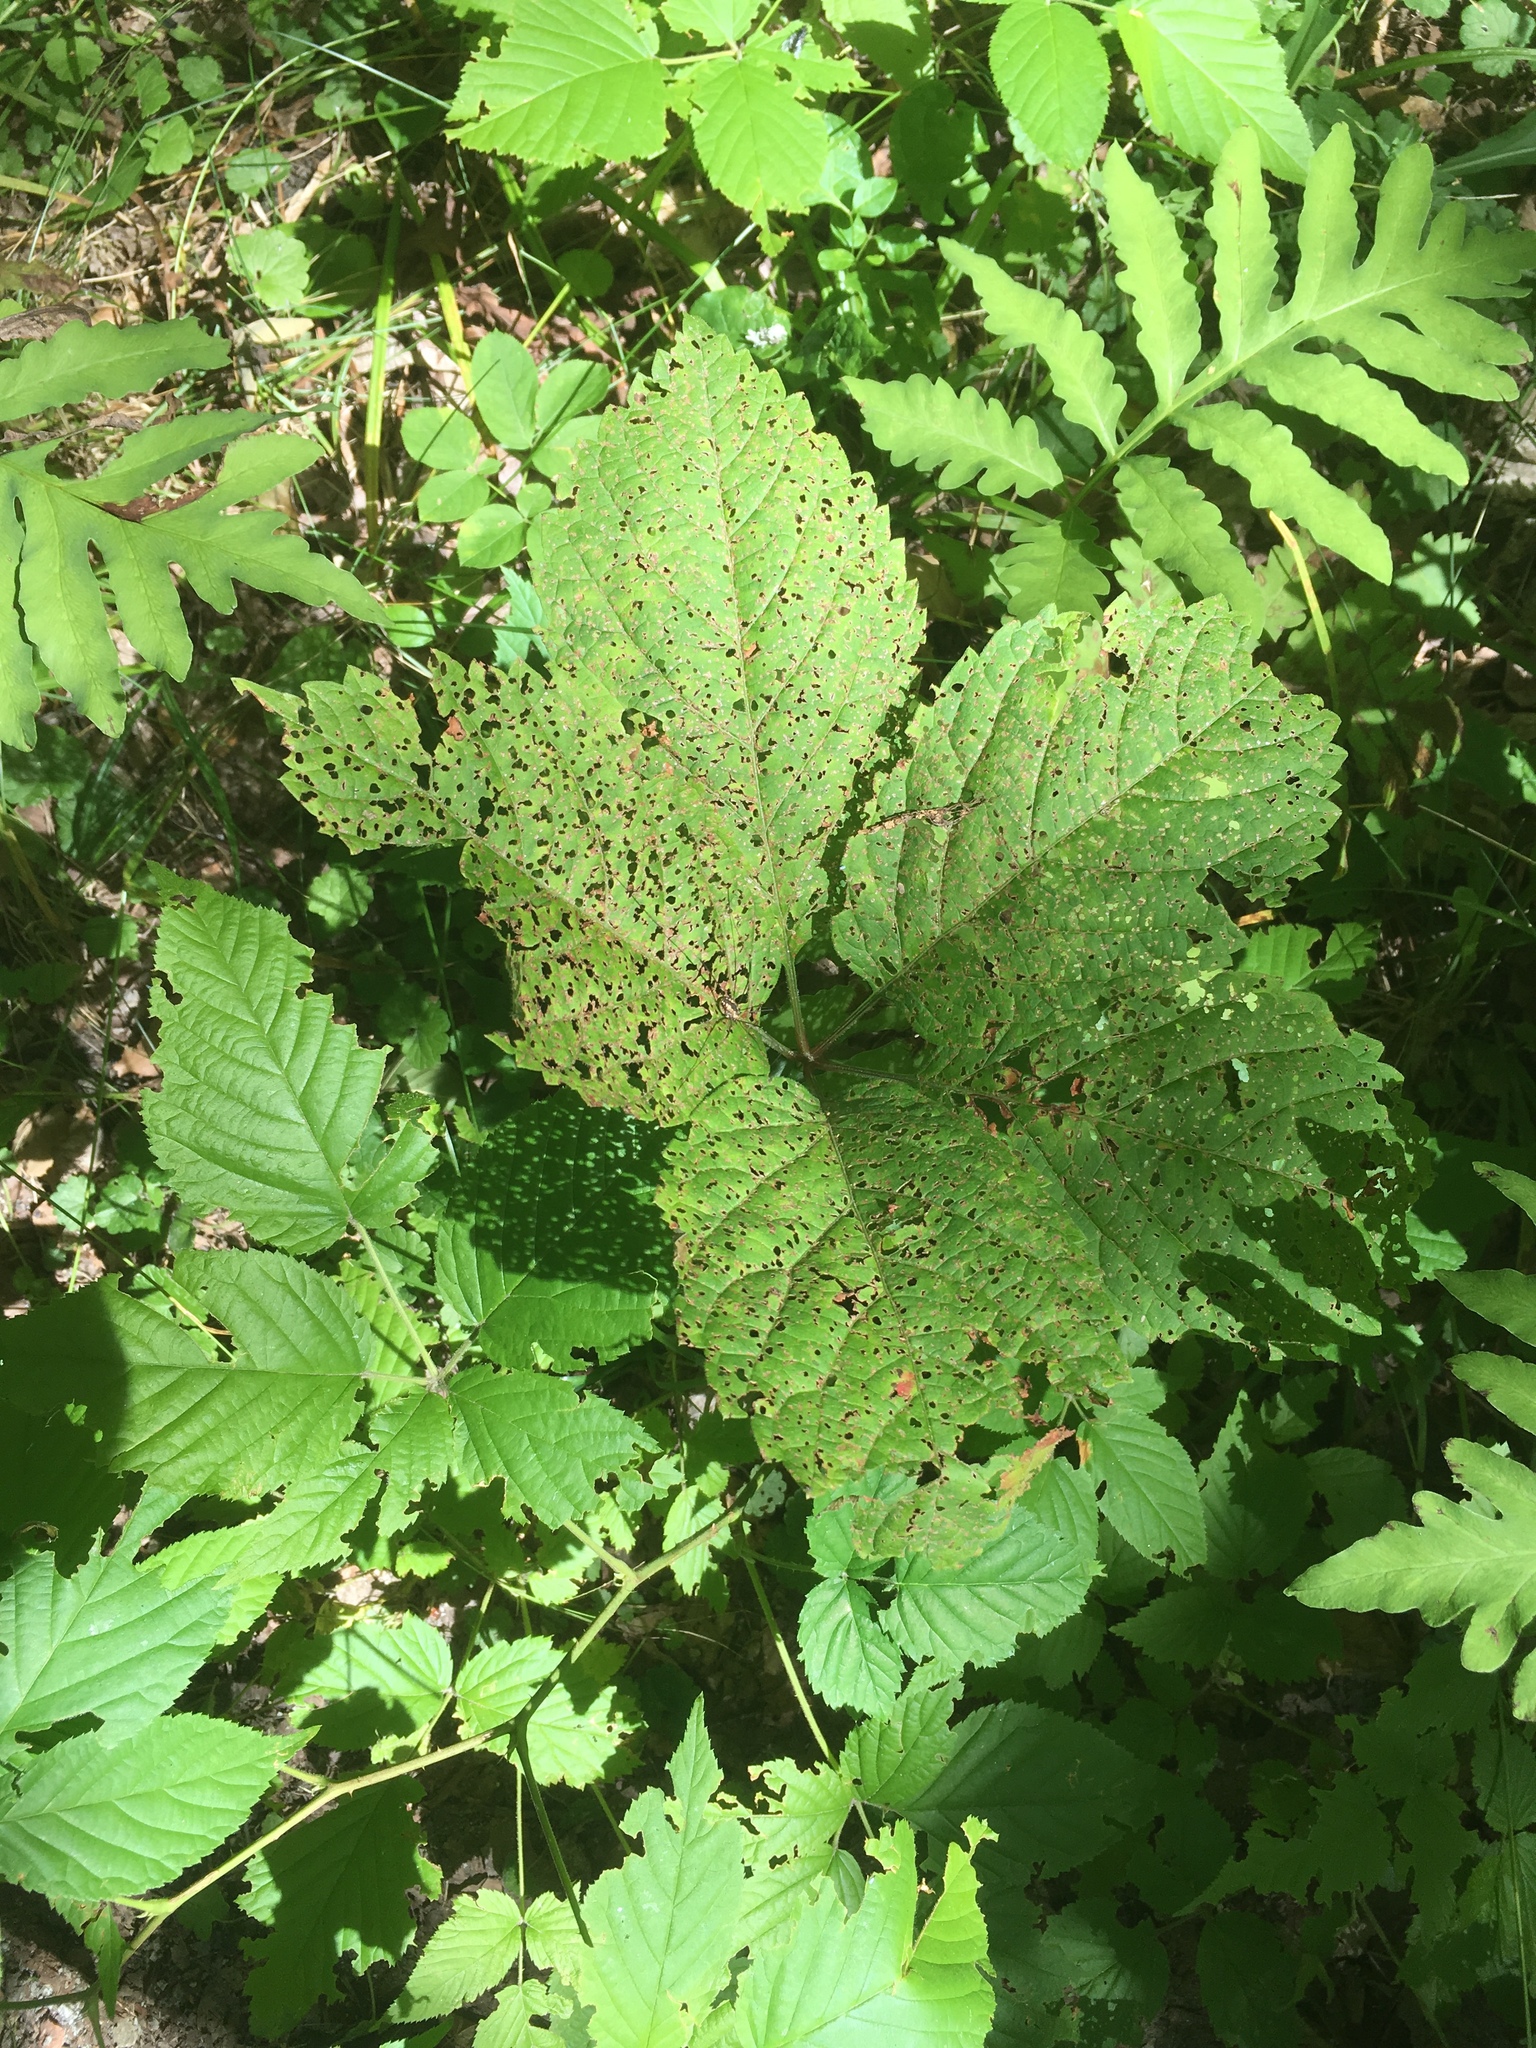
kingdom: Plantae
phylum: Tracheophyta
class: Magnoliopsida
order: Vitales
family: Vitaceae
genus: Parthenocissus
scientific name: Parthenocissus inserta
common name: False virginia-creeper
